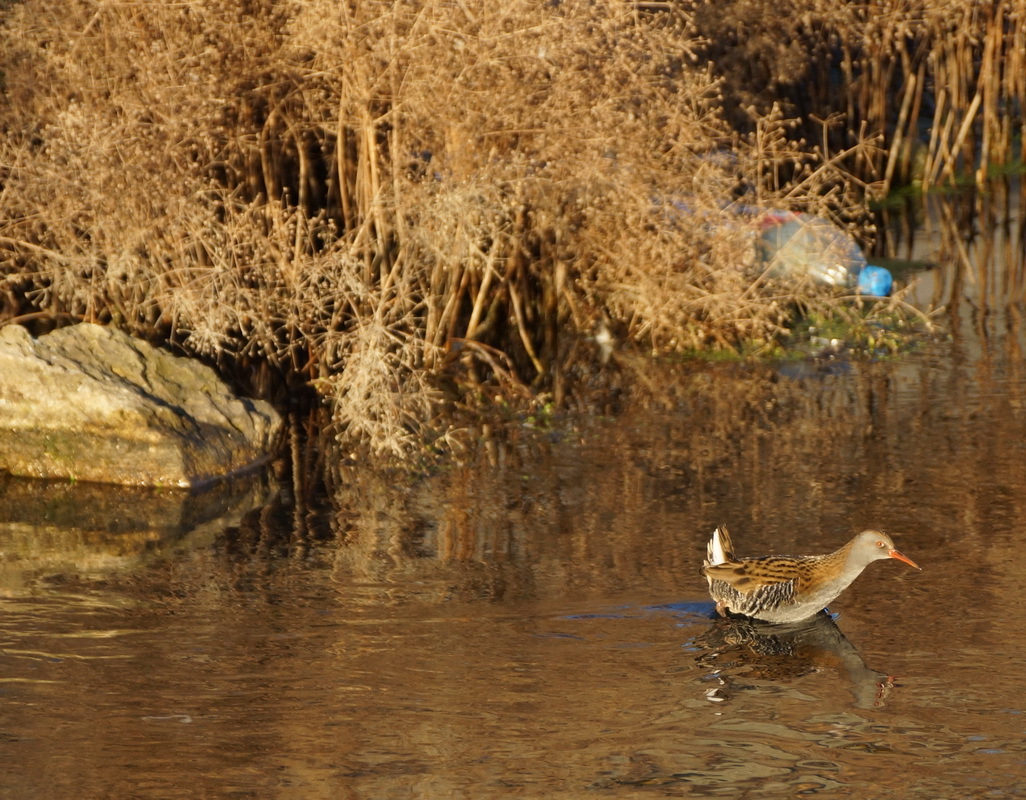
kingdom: Animalia
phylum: Chordata
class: Aves
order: Gruiformes
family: Rallidae
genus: Rallus
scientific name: Rallus aquaticus
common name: Water rail
